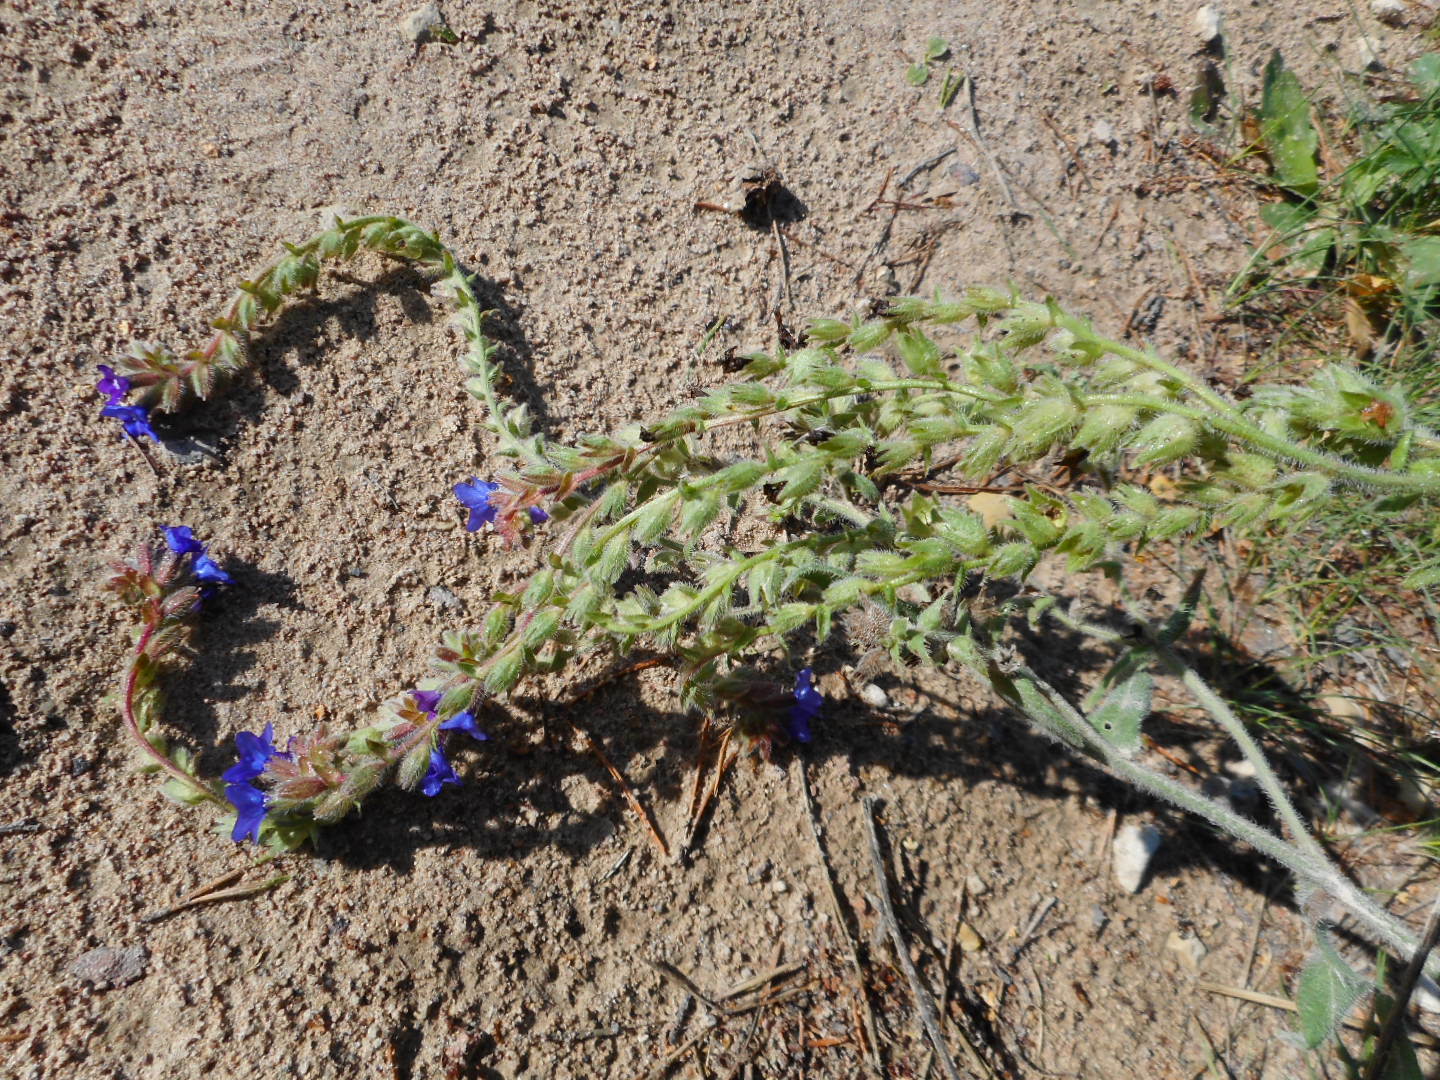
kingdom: Plantae
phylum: Tracheophyta
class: Magnoliopsida
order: Boraginales
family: Boraginaceae
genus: Anchusa
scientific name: Anchusa officinalis
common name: Alkanet
